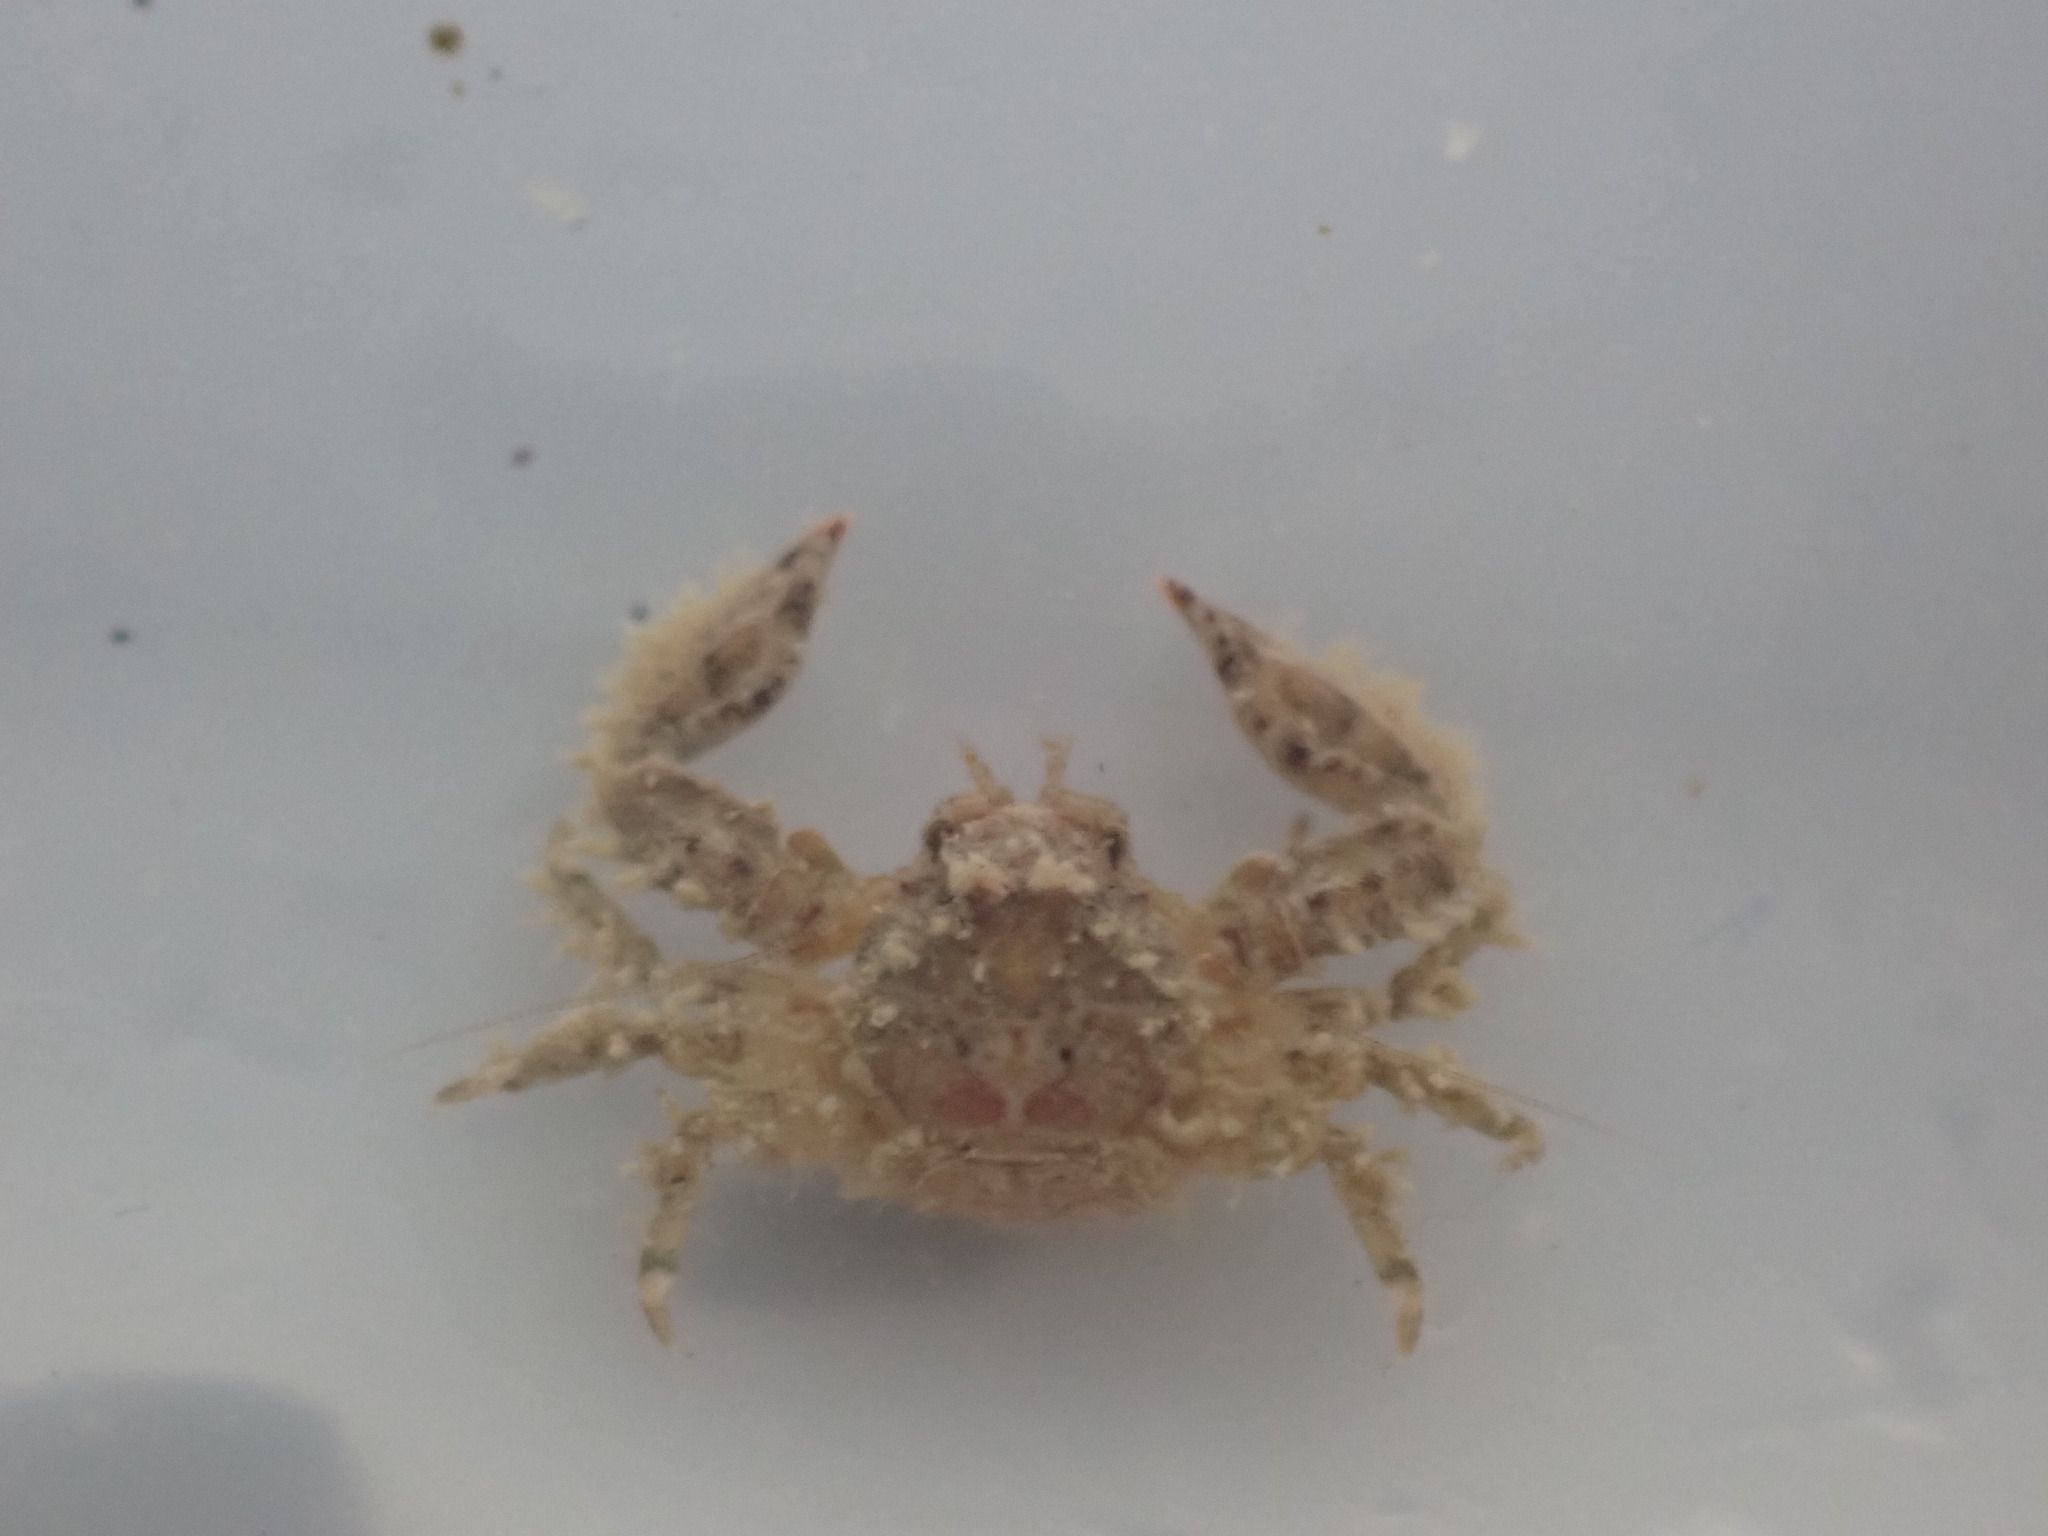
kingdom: Animalia
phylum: Arthropoda
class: Malacostraca
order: Decapoda
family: Porcellanidae
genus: Petrolisthes
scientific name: Petrolisthes novaezelandiae
